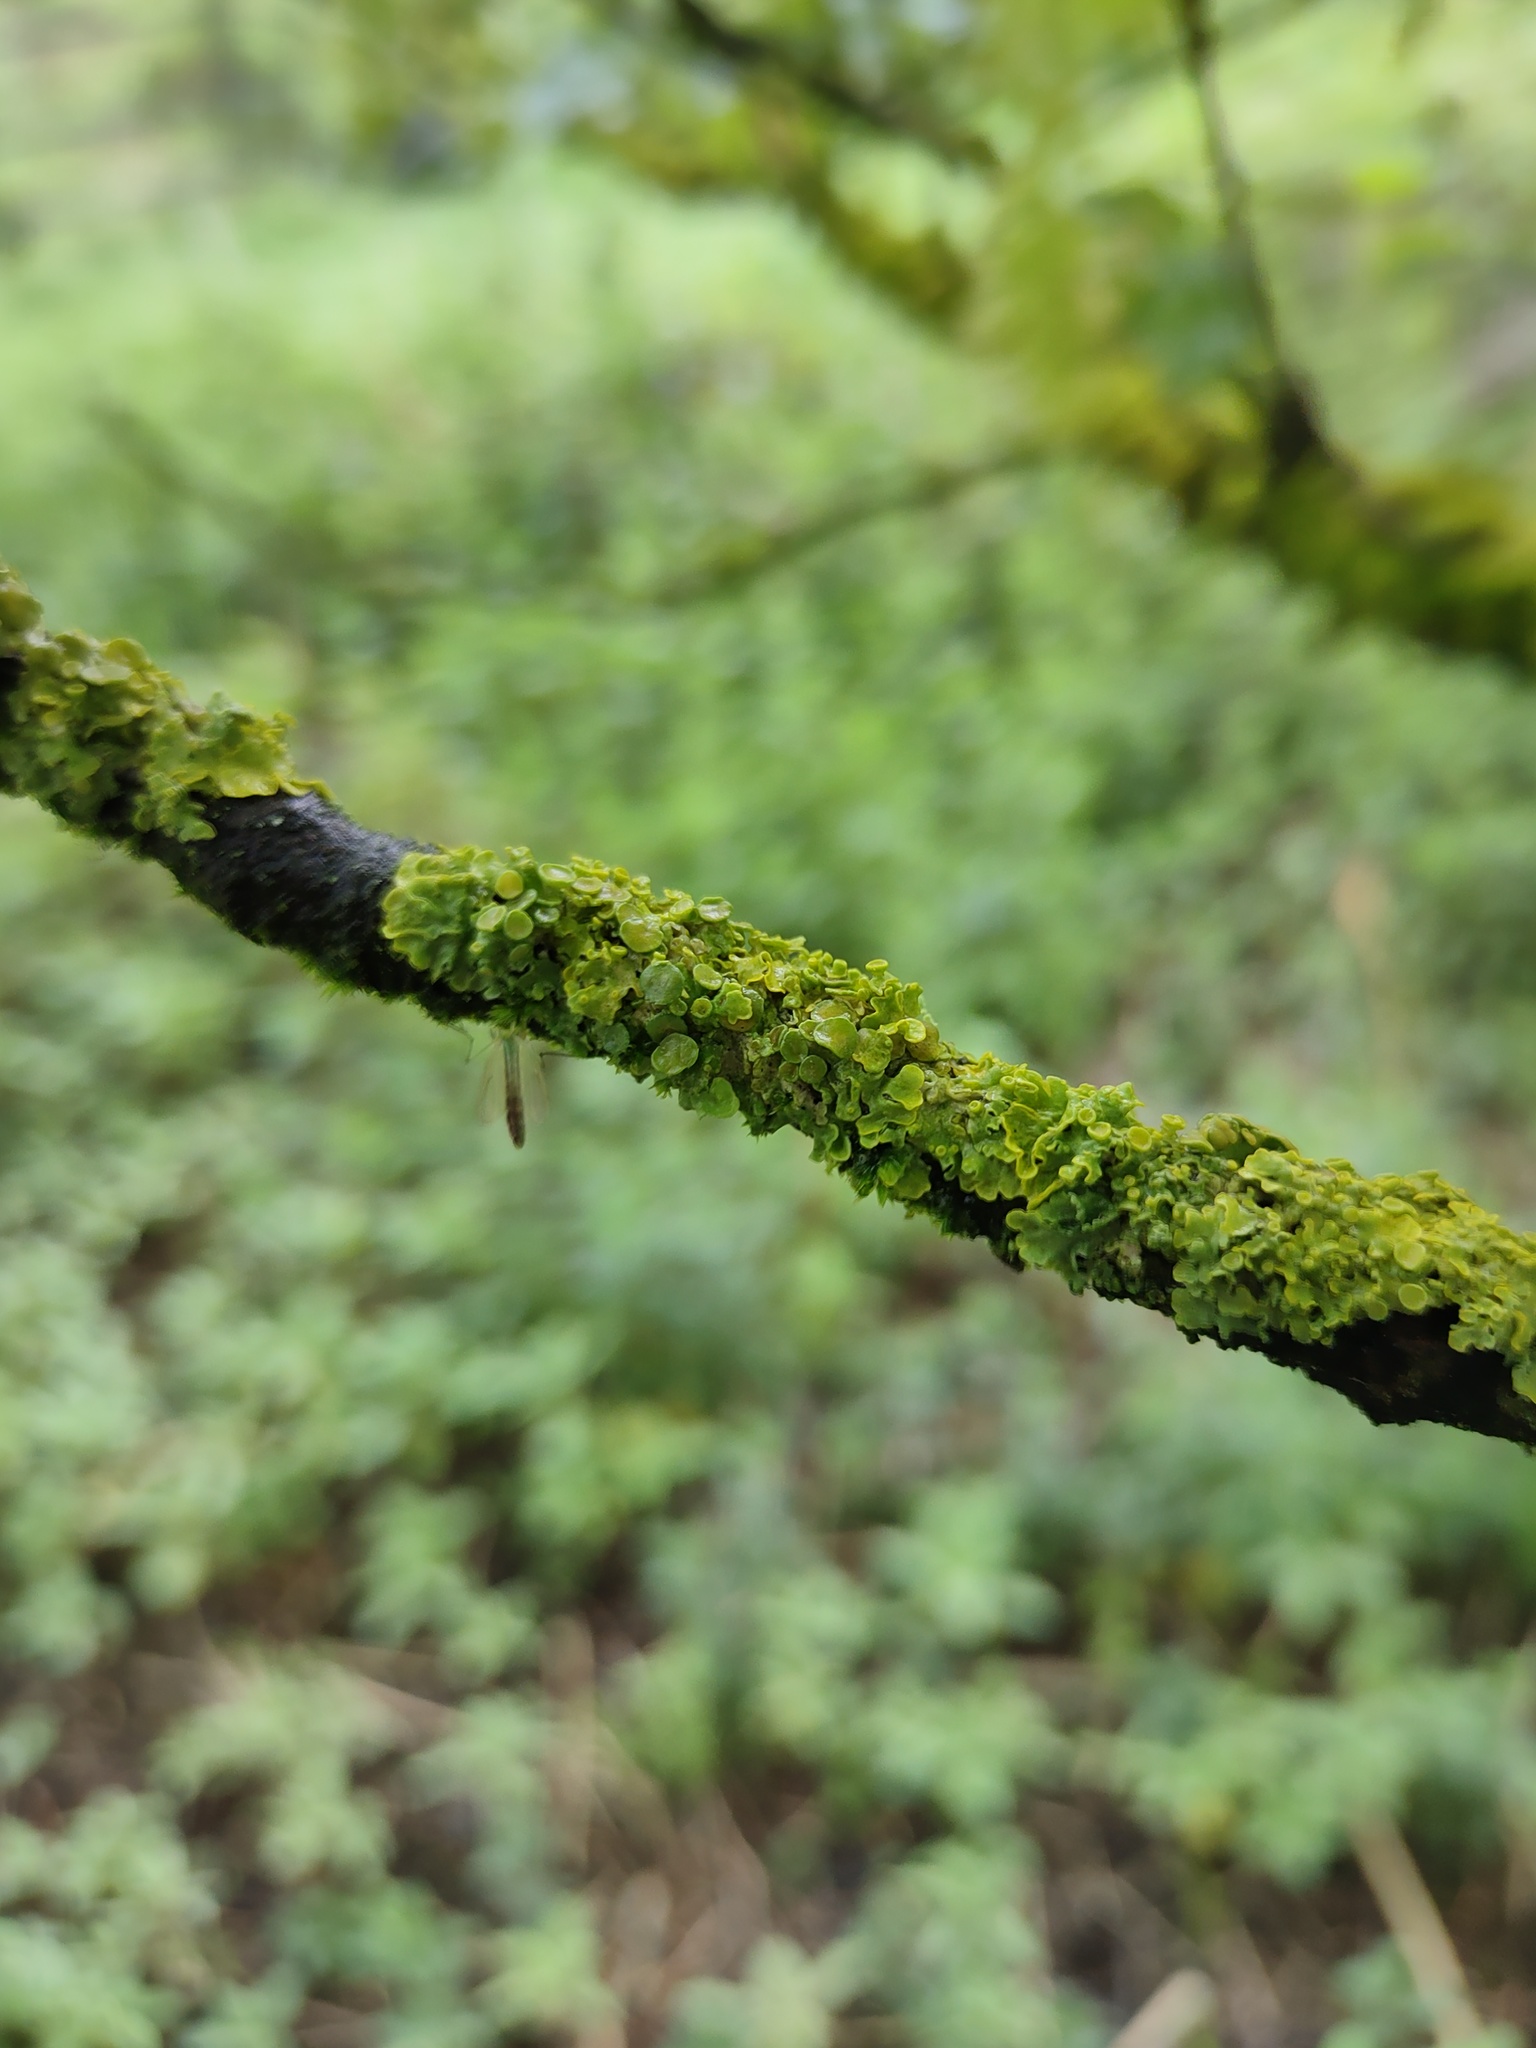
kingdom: Fungi
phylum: Ascomycota
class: Lecanoromycetes
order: Teloschistales
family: Teloschistaceae
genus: Xanthoria
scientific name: Xanthoria parietina
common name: Common orange lichen
